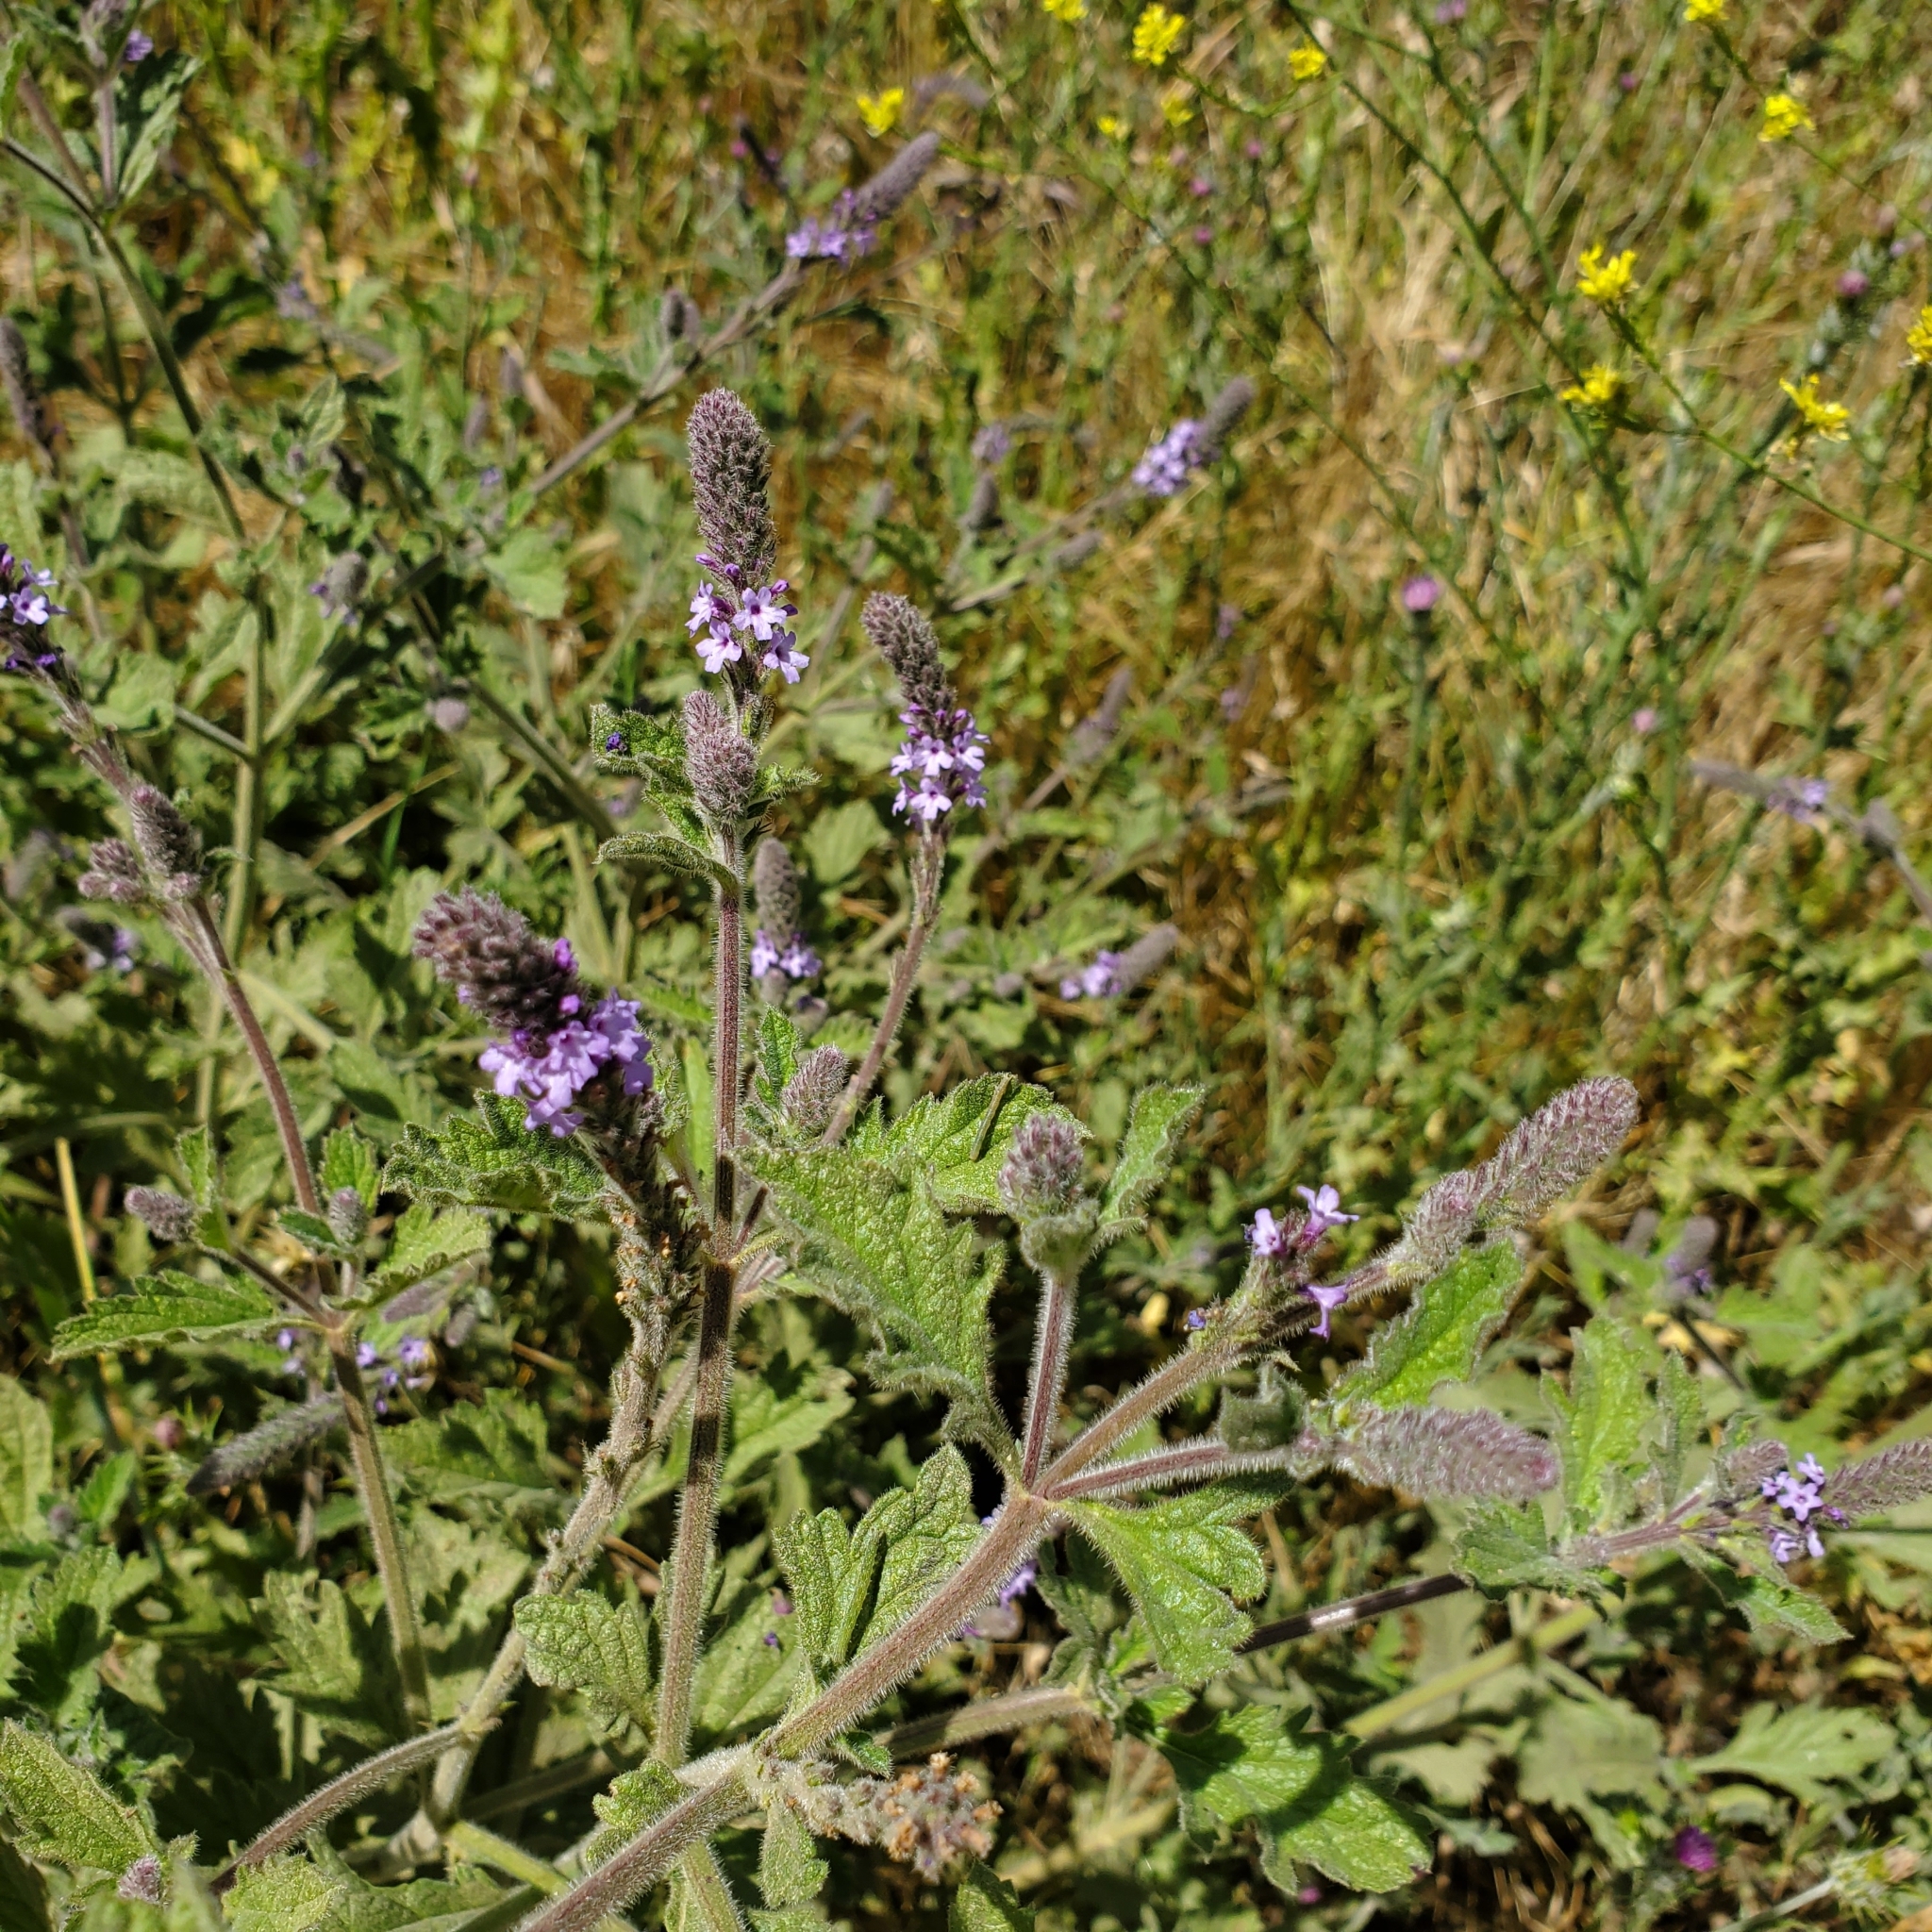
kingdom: Plantae
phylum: Tracheophyta
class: Magnoliopsida
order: Lamiales
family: Verbenaceae
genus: Verbena
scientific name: Verbena lasiostachys
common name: Vervain
